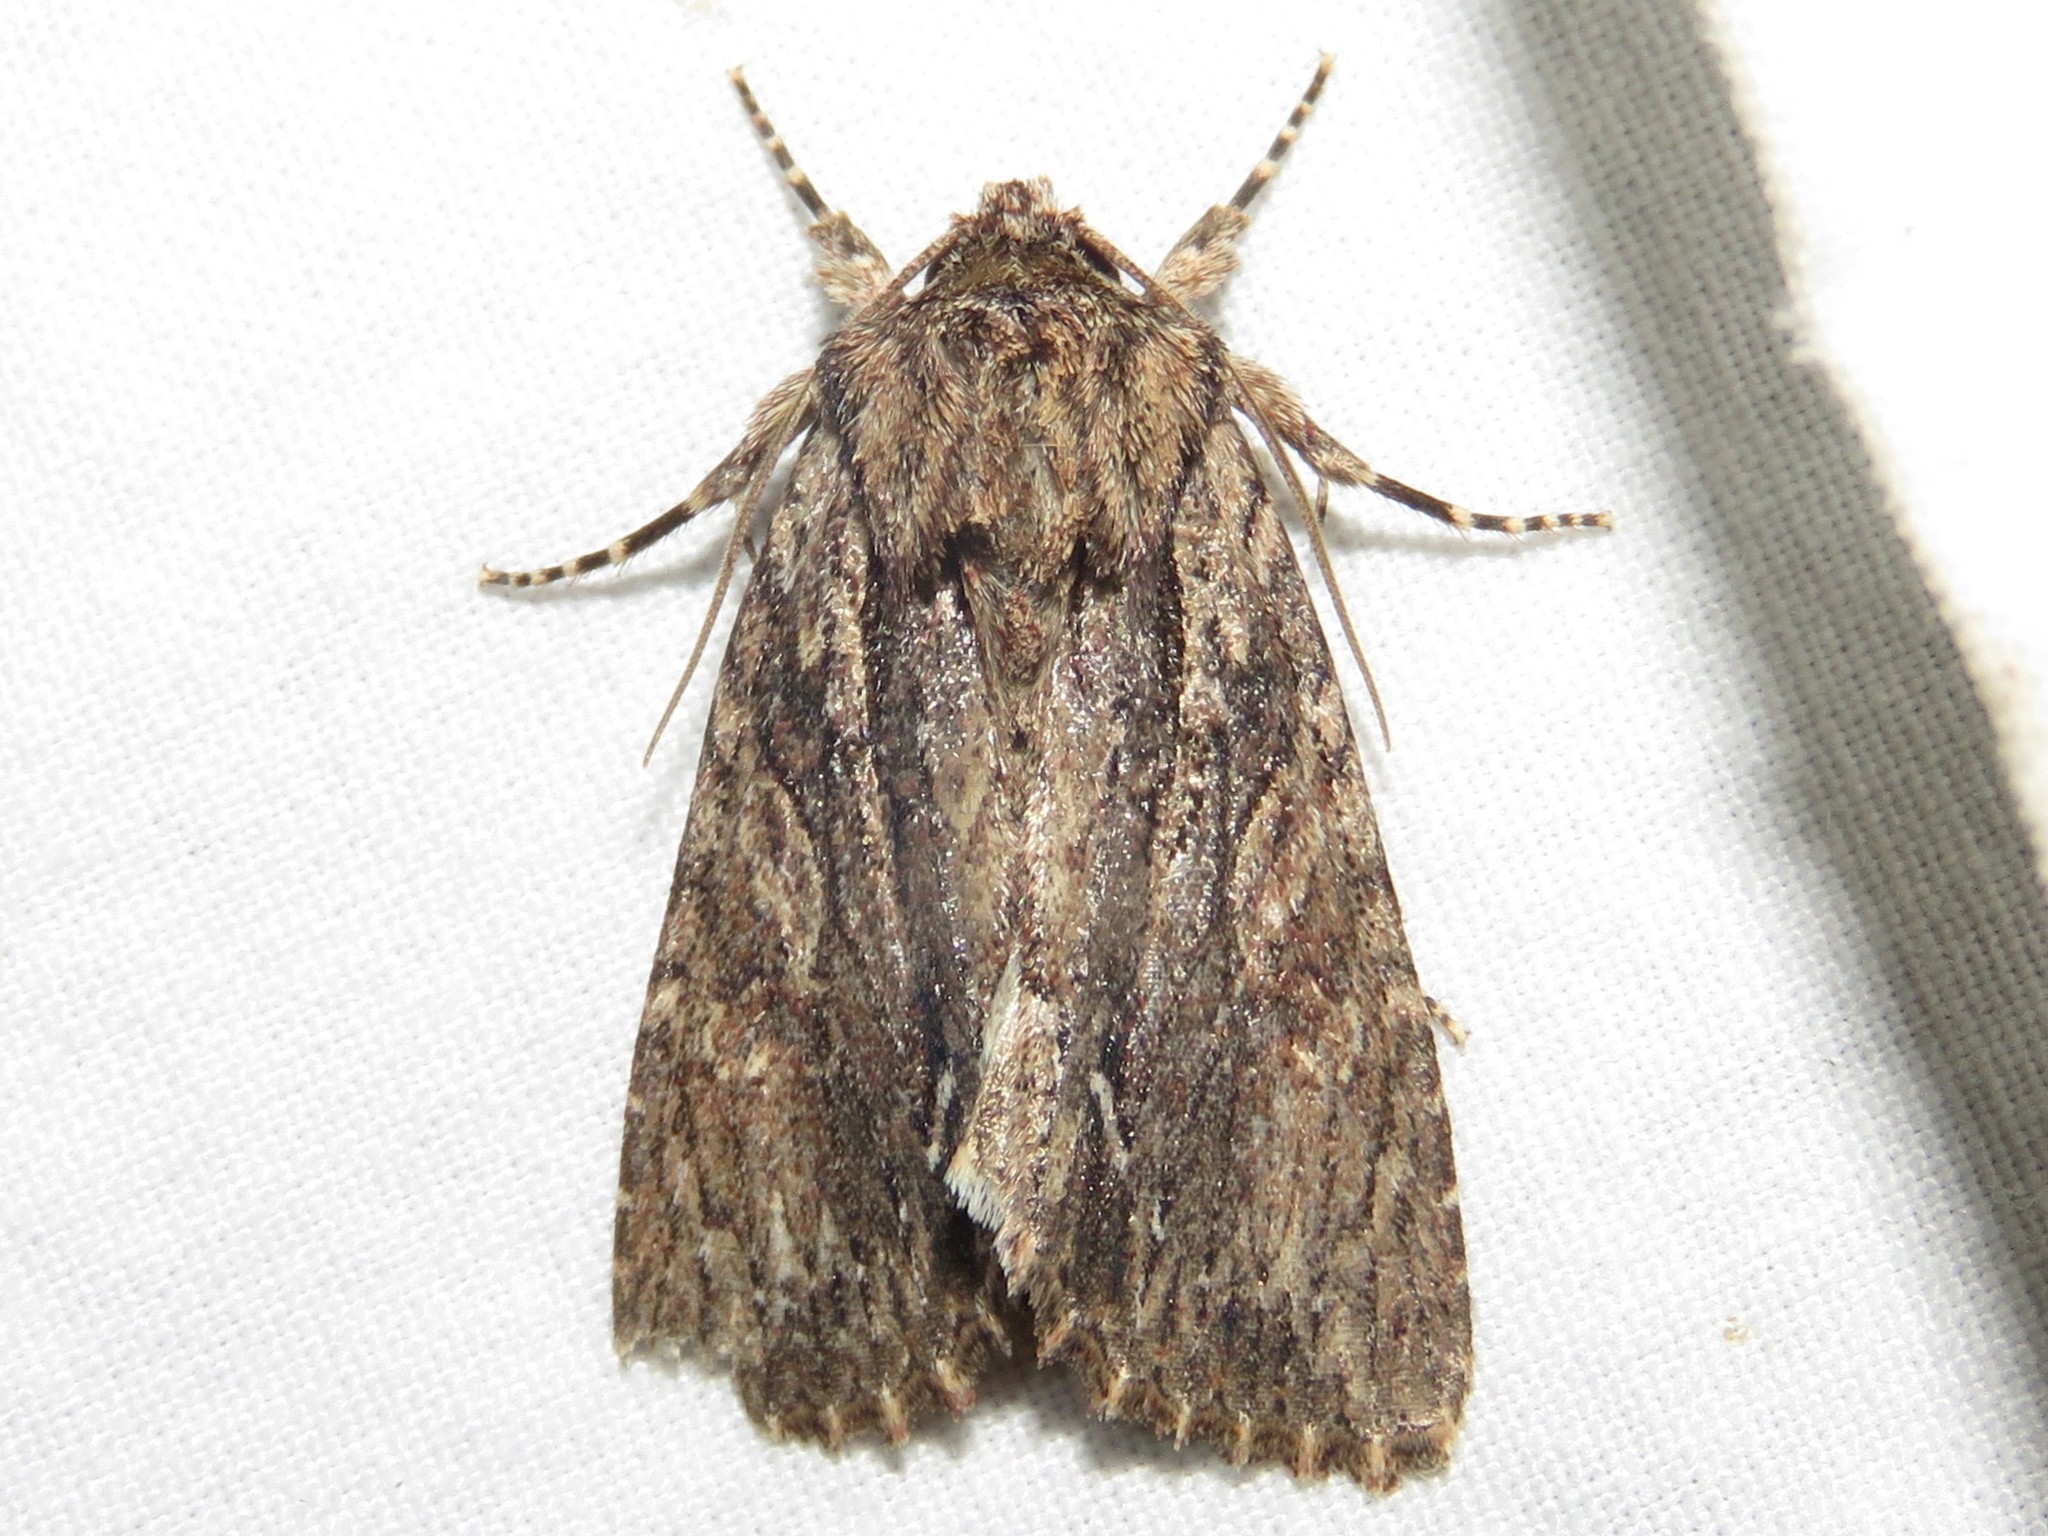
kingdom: Animalia
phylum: Arthropoda
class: Insecta
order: Lepidoptera
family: Noctuidae
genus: Achatia
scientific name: Achatia confusa
